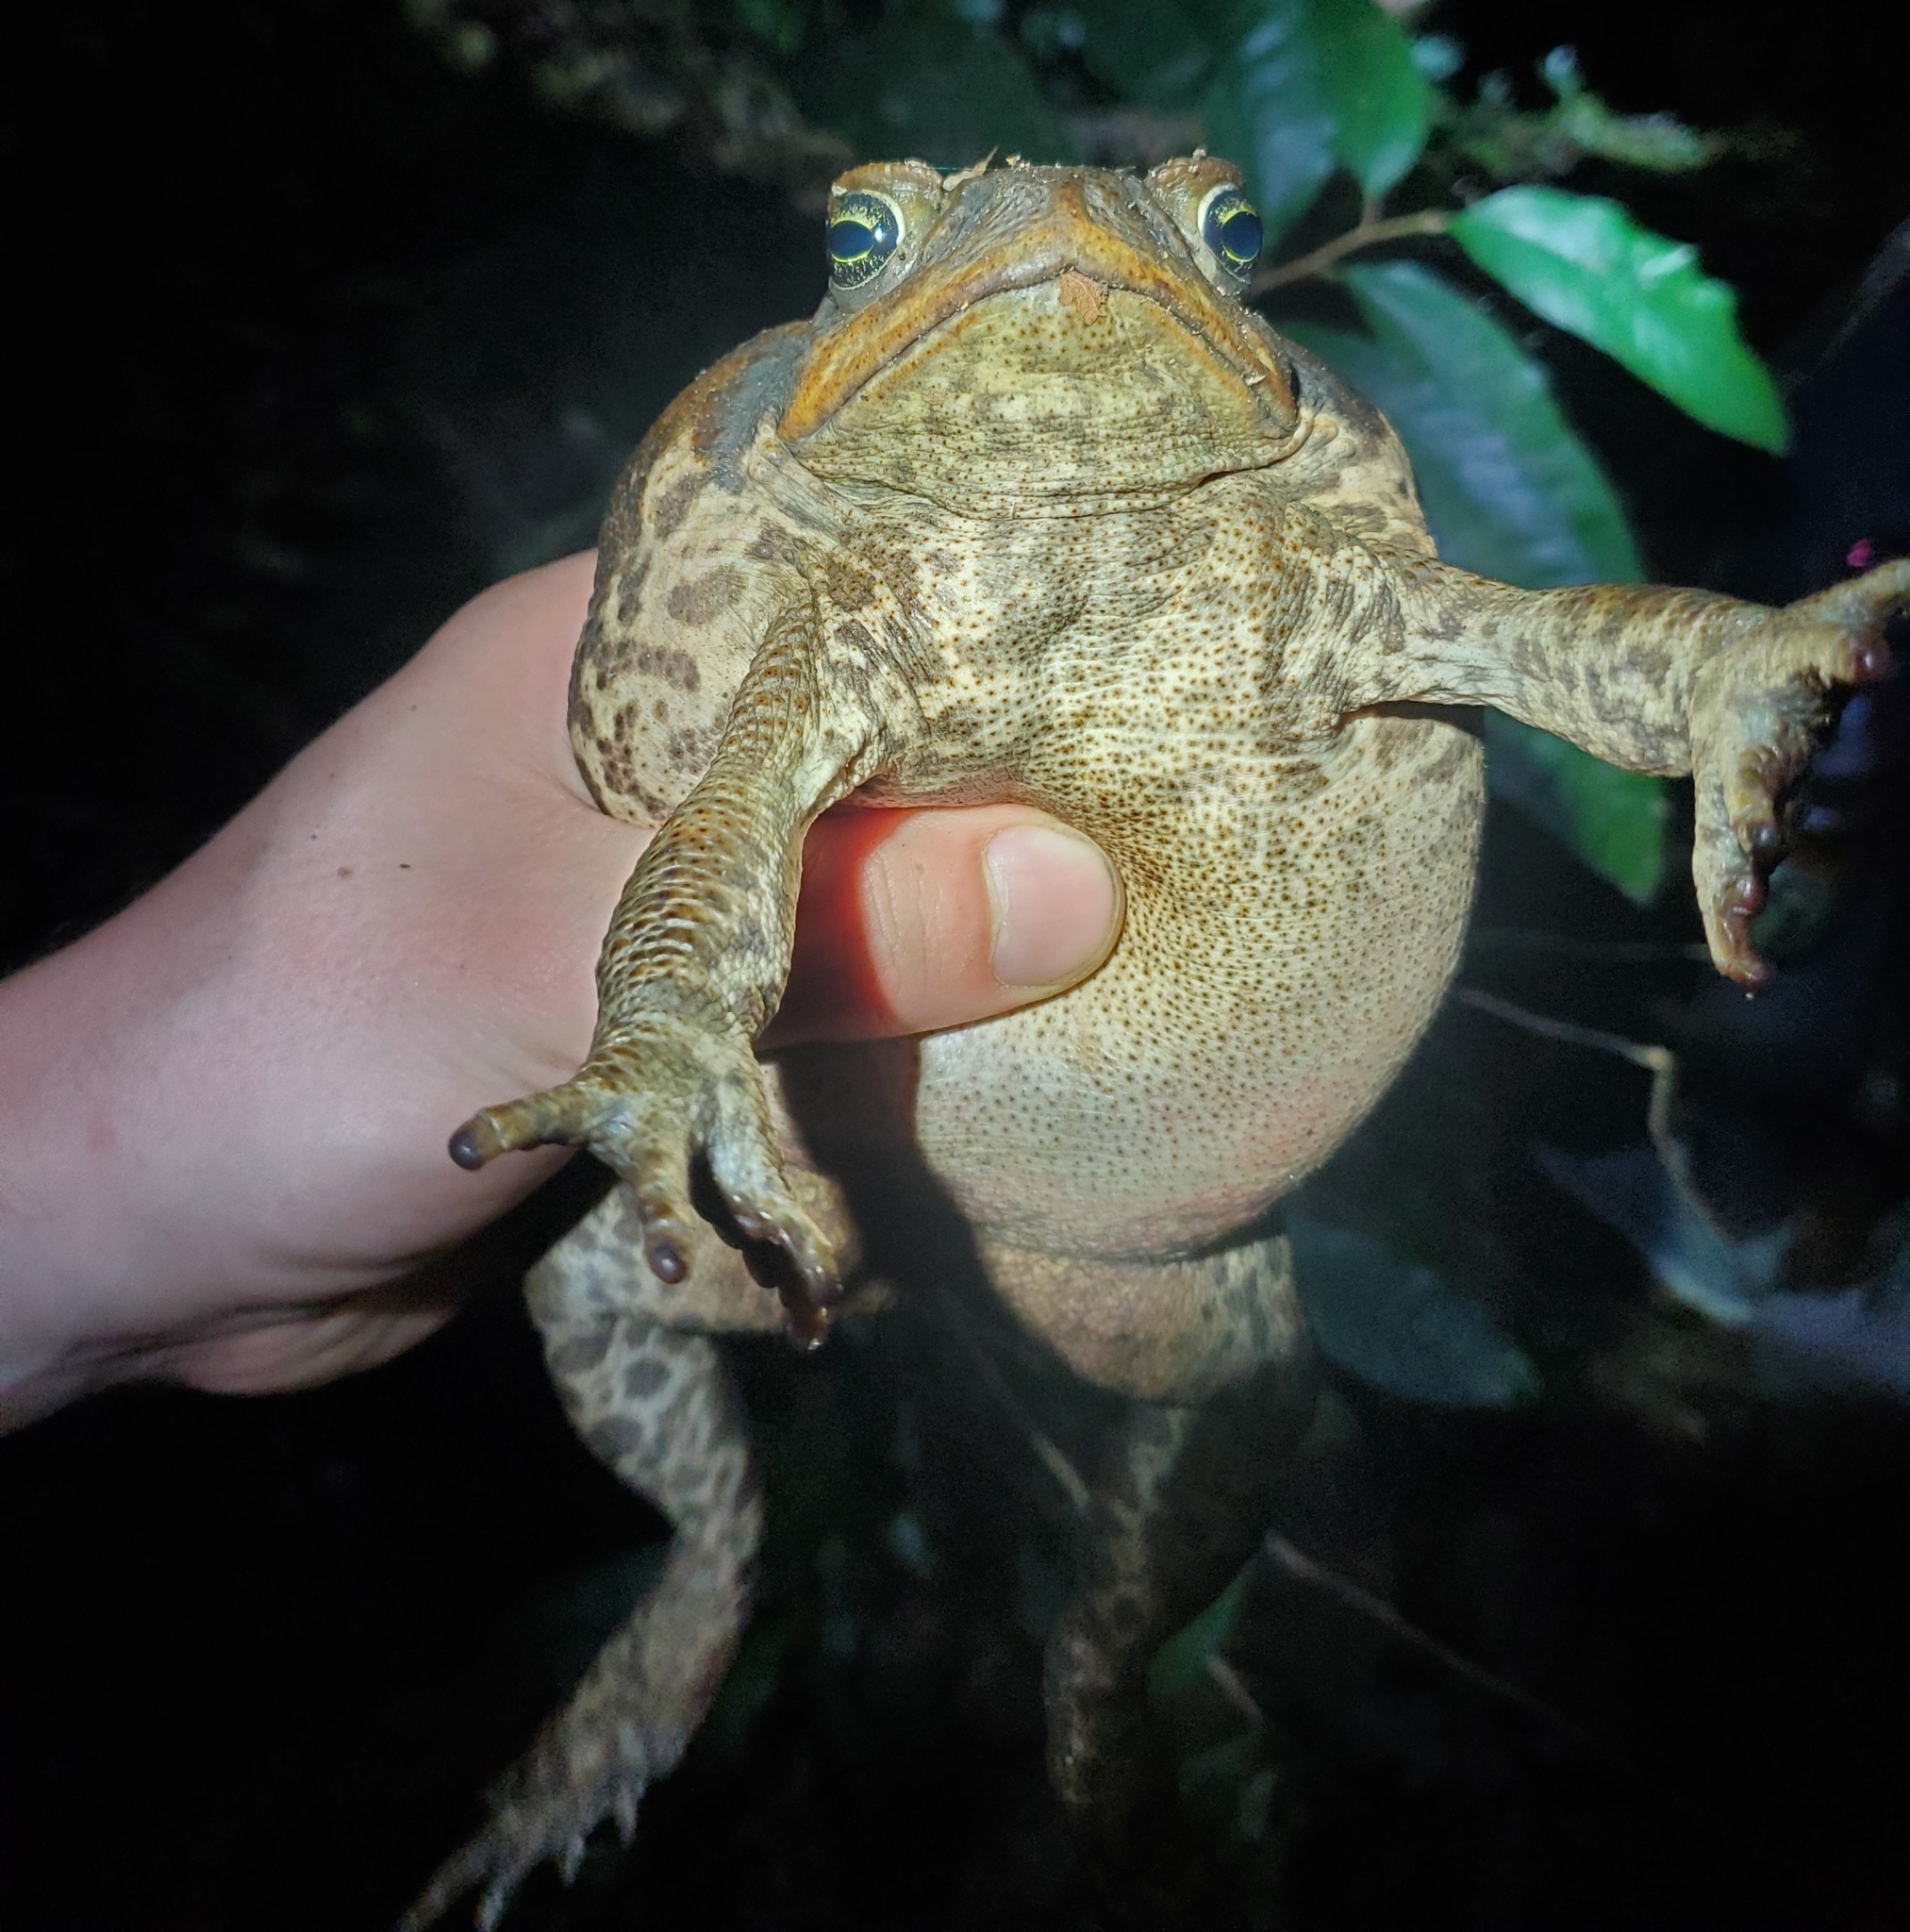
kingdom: Animalia
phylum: Chordata
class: Amphibia
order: Anura
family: Bufonidae
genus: Rhinella
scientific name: Rhinella marina
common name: Cane toad
